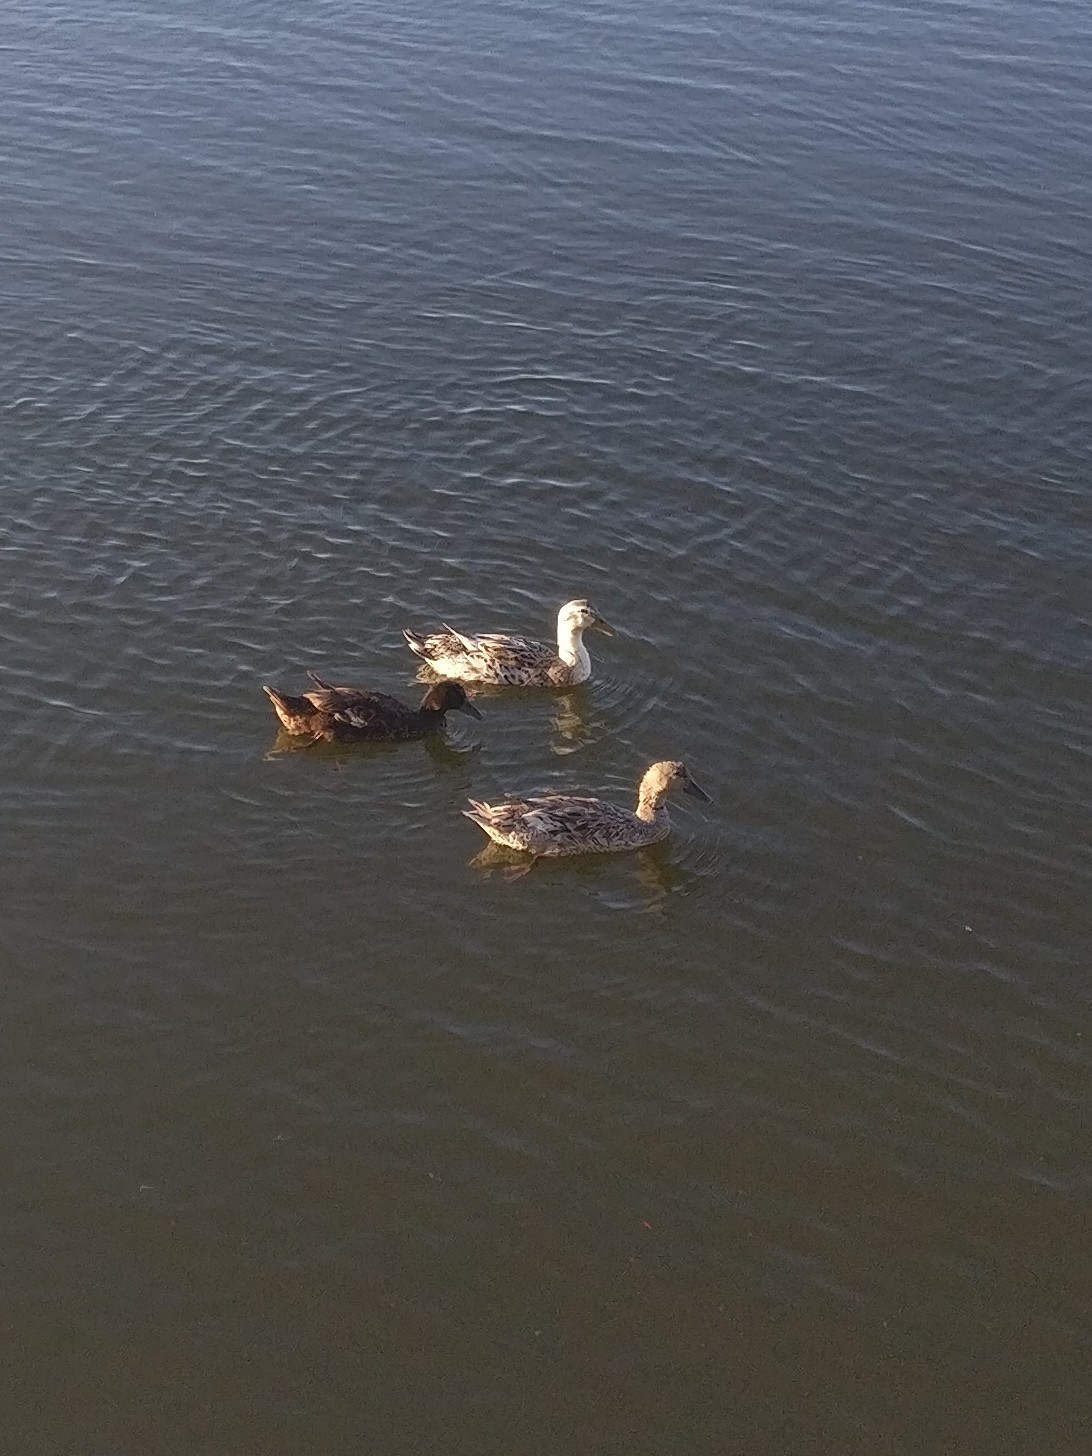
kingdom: Animalia
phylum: Chordata
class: Aves
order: Anseriformes
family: Anatidae
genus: Anas
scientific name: Anas platyrhynchos
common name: Mallard
